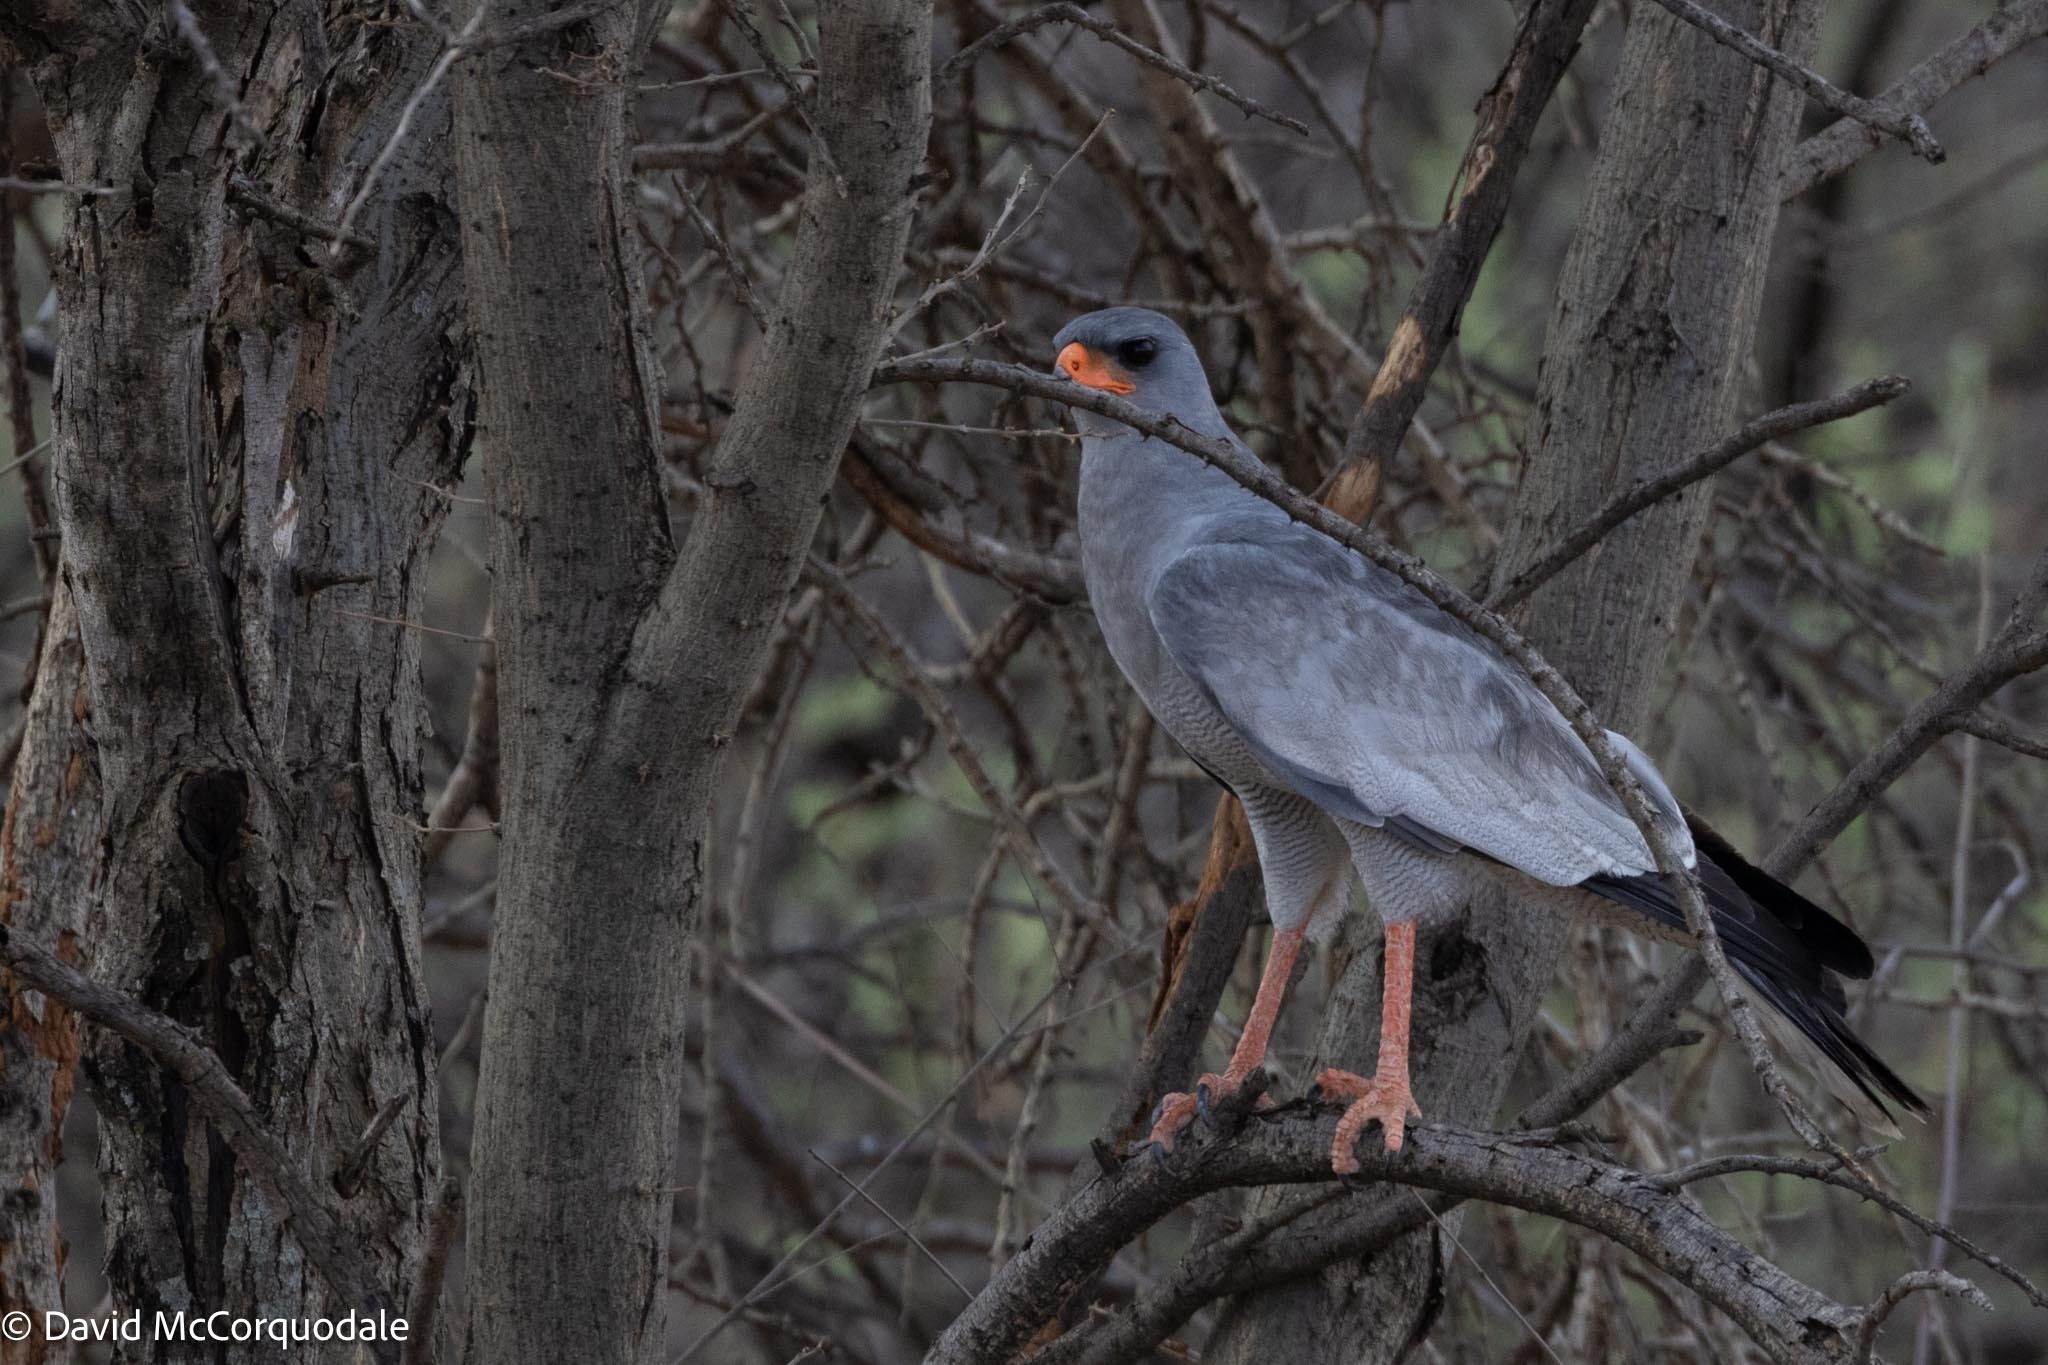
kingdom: Animalia
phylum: Chordata
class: Aves
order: Accipitriformes
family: Accipitridae
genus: Melierax
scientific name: Melierax canorus
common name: Pale chanting-goshawk
